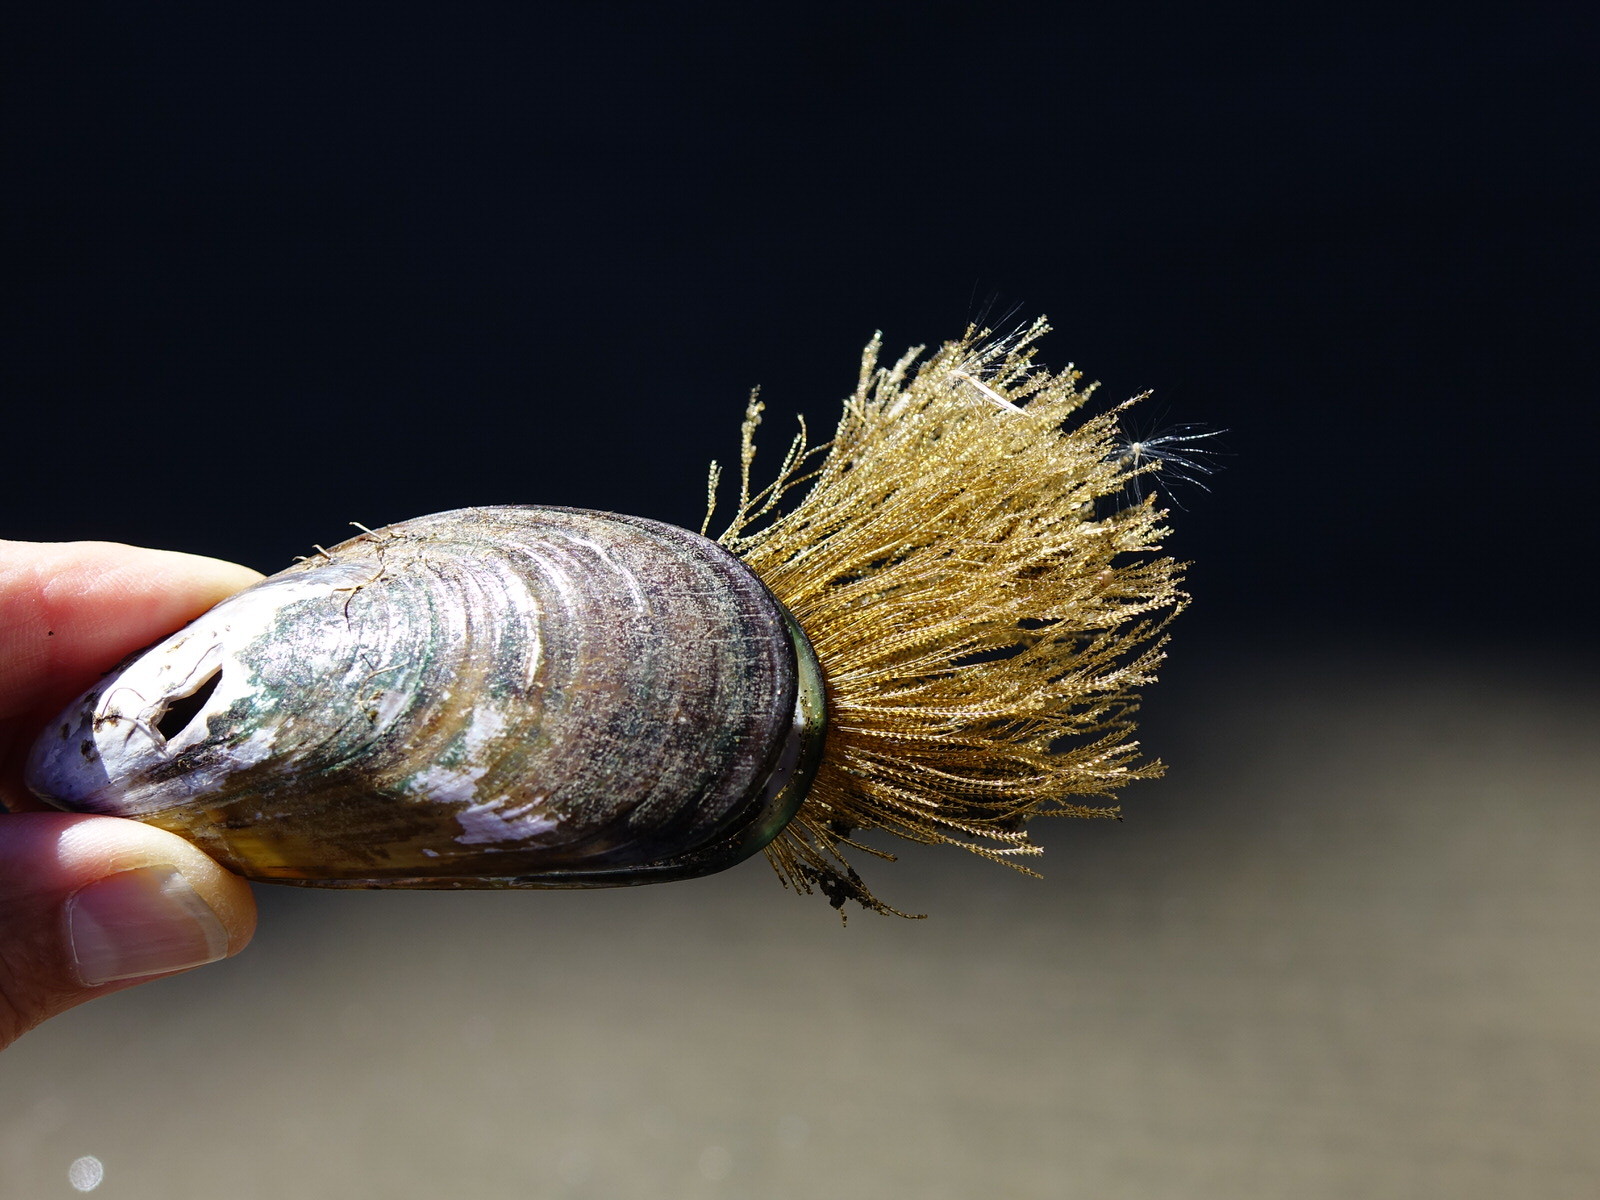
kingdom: Animalia
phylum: Mollusca
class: Bivalvia
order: Mytilida
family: Mytilidae
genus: Perna
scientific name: Perna canaliculus
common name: New zealand greenshelltm
